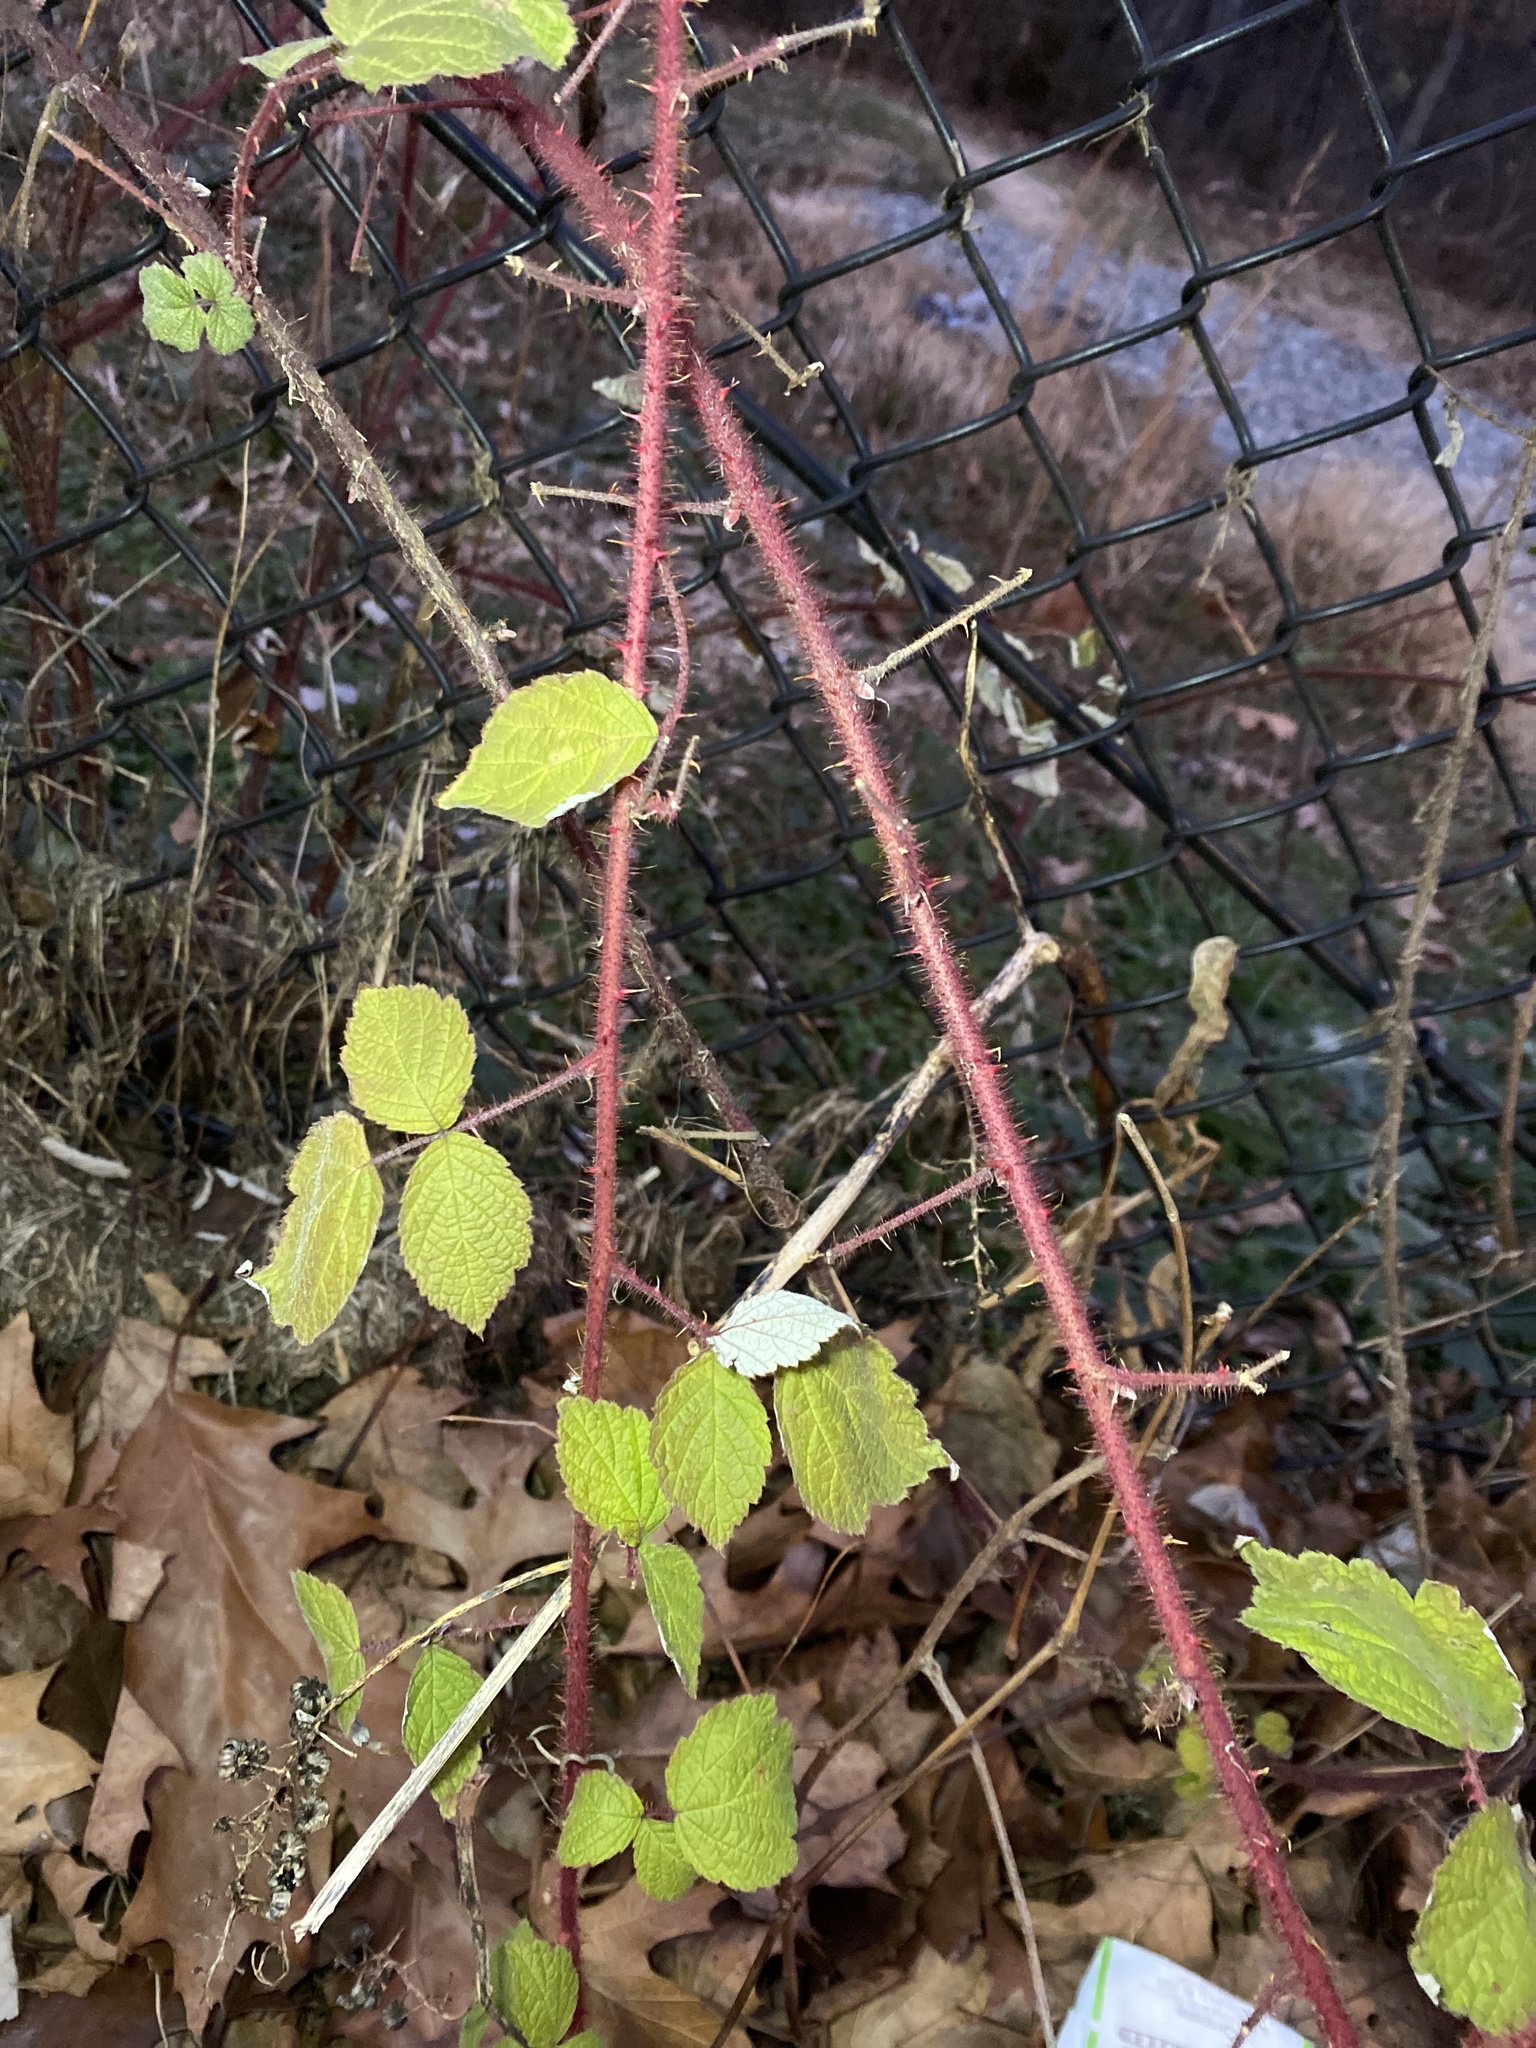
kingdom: Plantae
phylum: Tracheophyta
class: Magnoliopsida
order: Rosales
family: Rosaceae
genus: Rubus
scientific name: Rubus phoenicolasius
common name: Japanese wineberry
